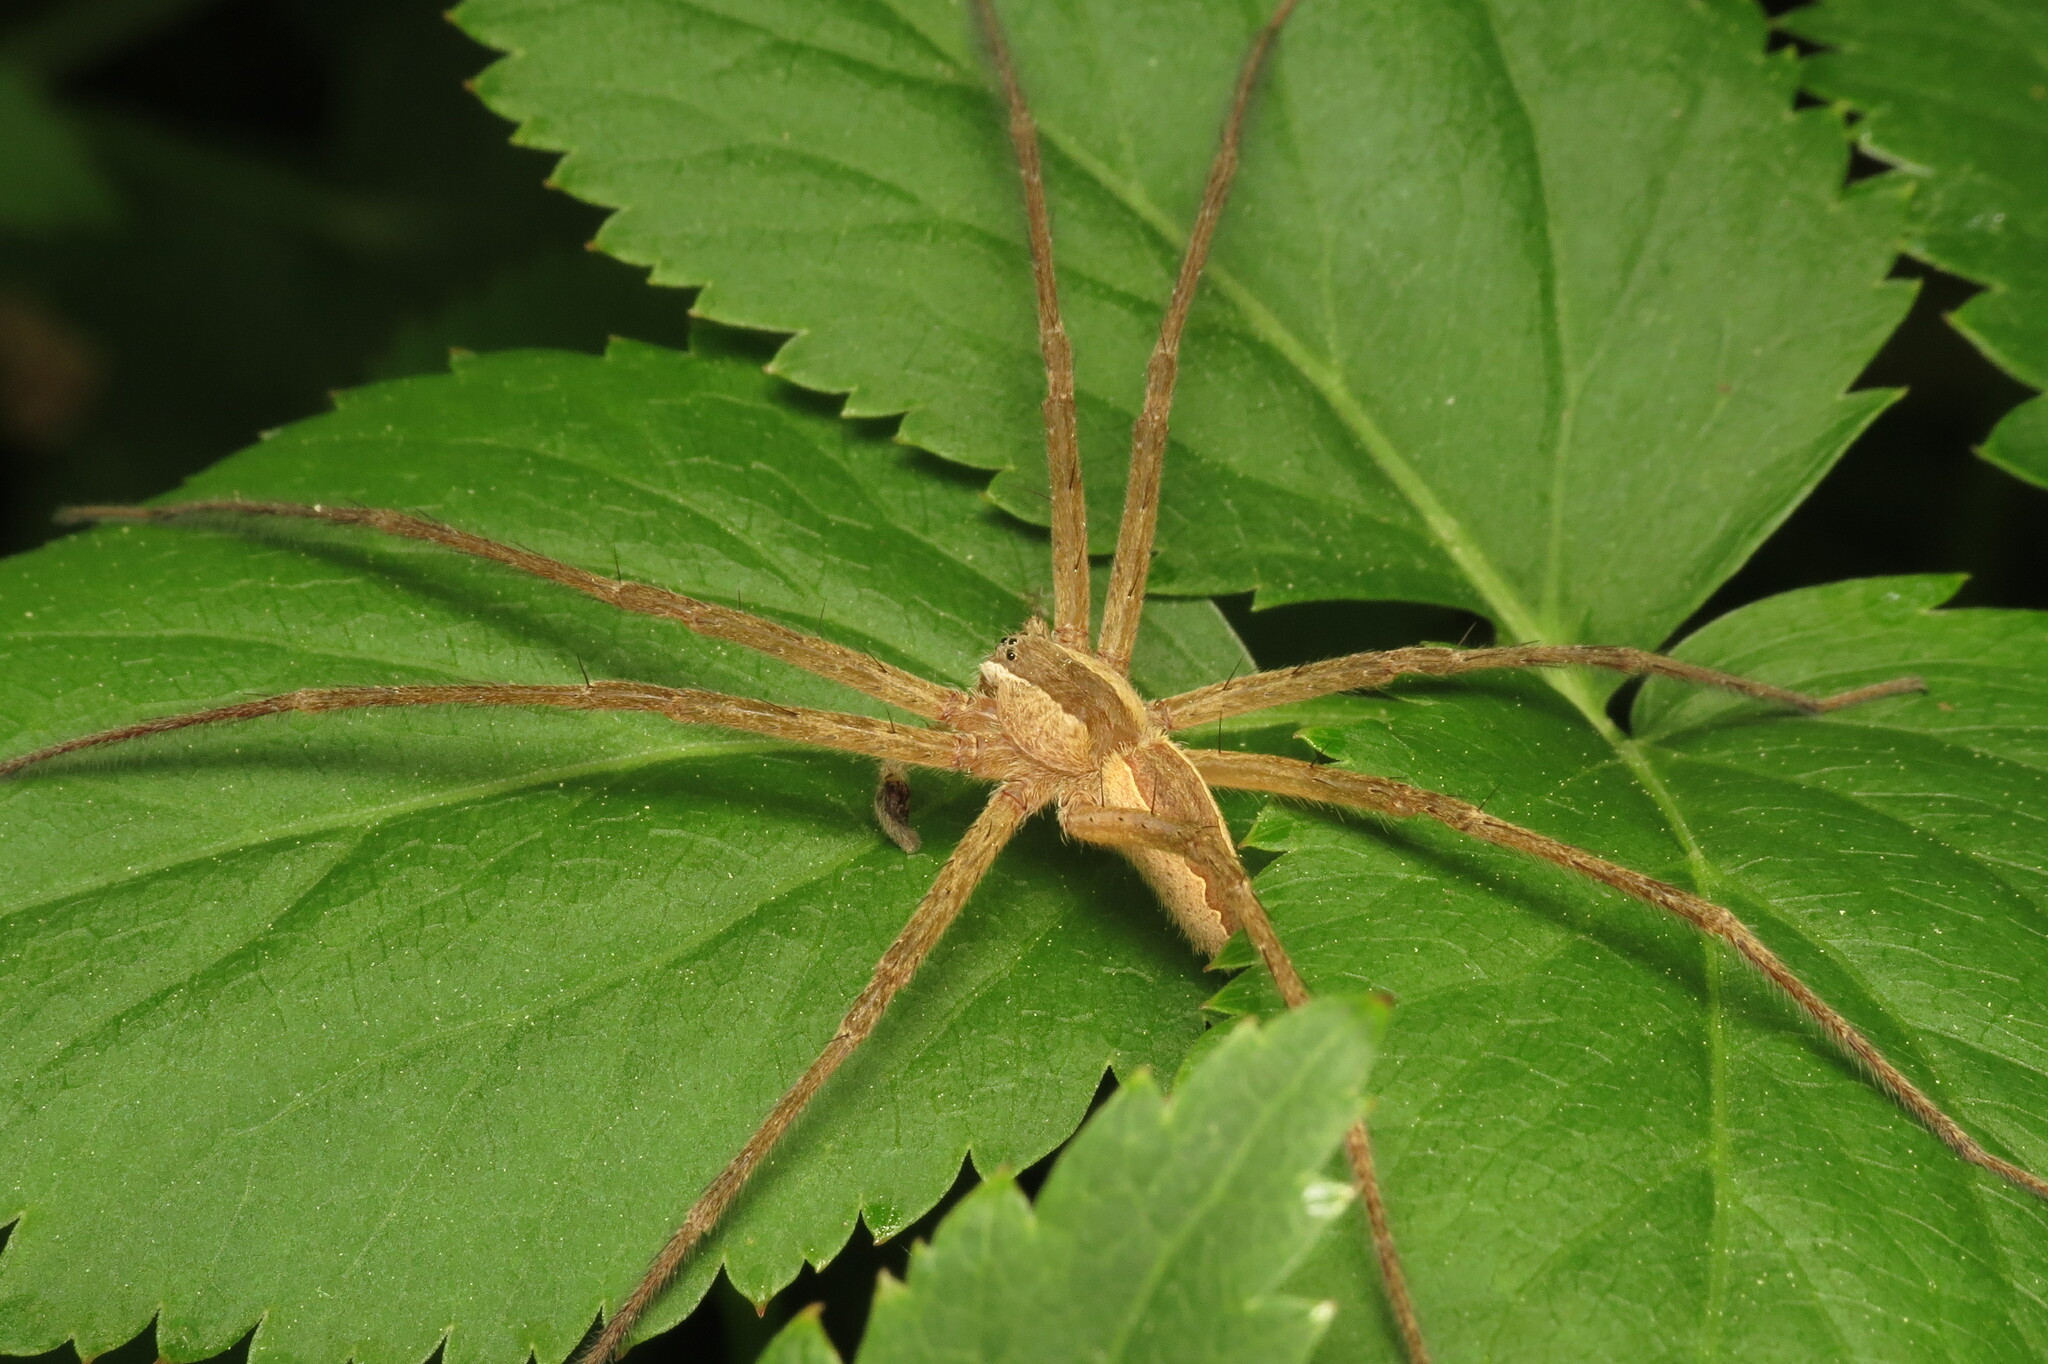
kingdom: Animalia
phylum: Arthropoda
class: Arachnida
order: Araneae
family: Pisauridae
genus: Pisaurina
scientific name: Pisaurina mira
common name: American nursery web spider
